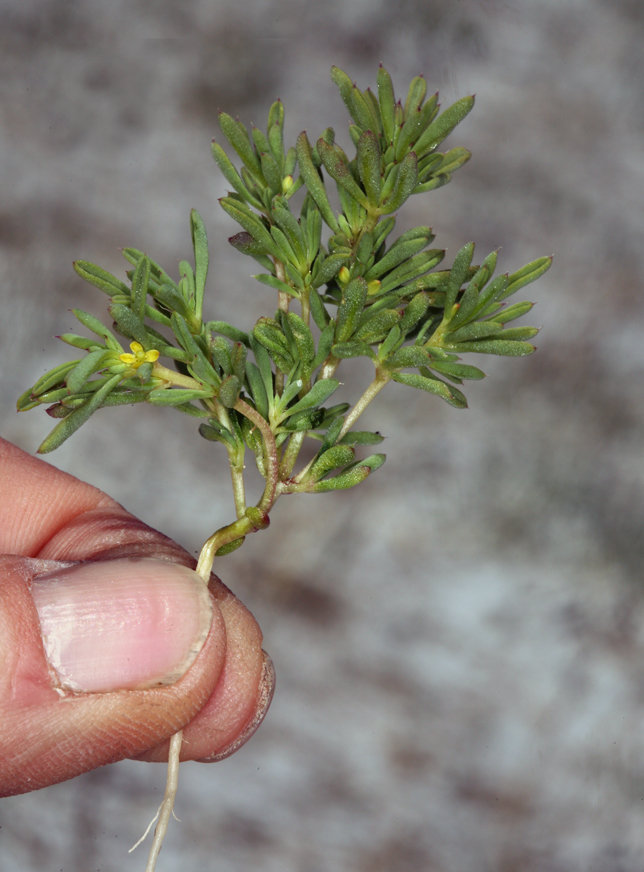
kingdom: Plantae
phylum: Tracheophyta
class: Magnoliopsida
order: Brassicales
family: Cleomaceae
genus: Cleomella
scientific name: Cleomella brevipes
